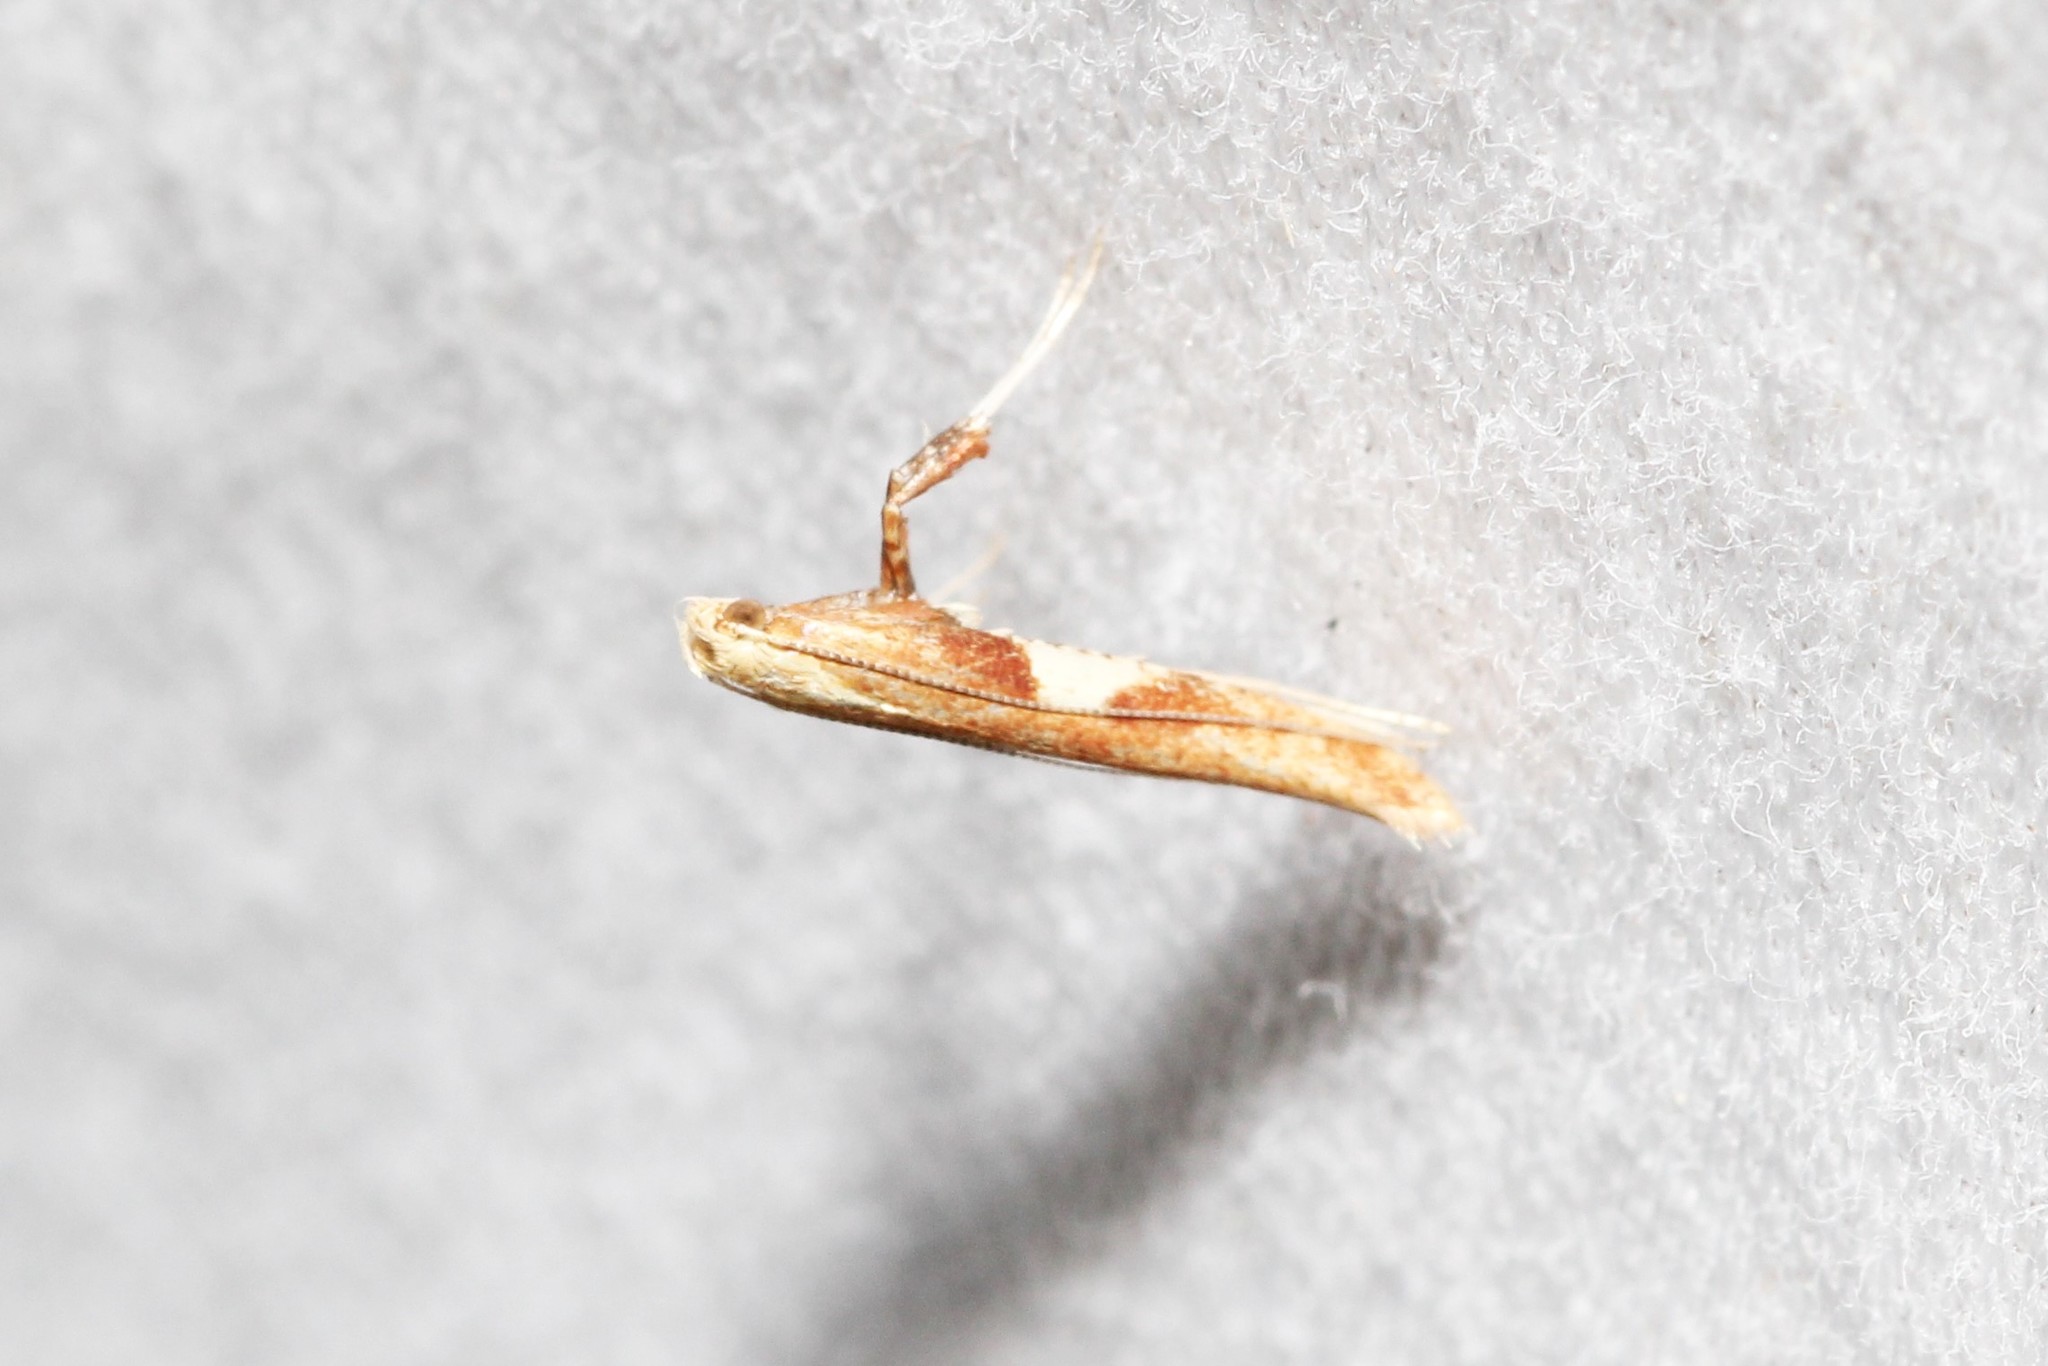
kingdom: Animalia
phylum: Arthropoda
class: Insecta
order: Lepidoptera
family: Gracillariidae
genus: Caloptilia
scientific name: Caloptilia packardella
